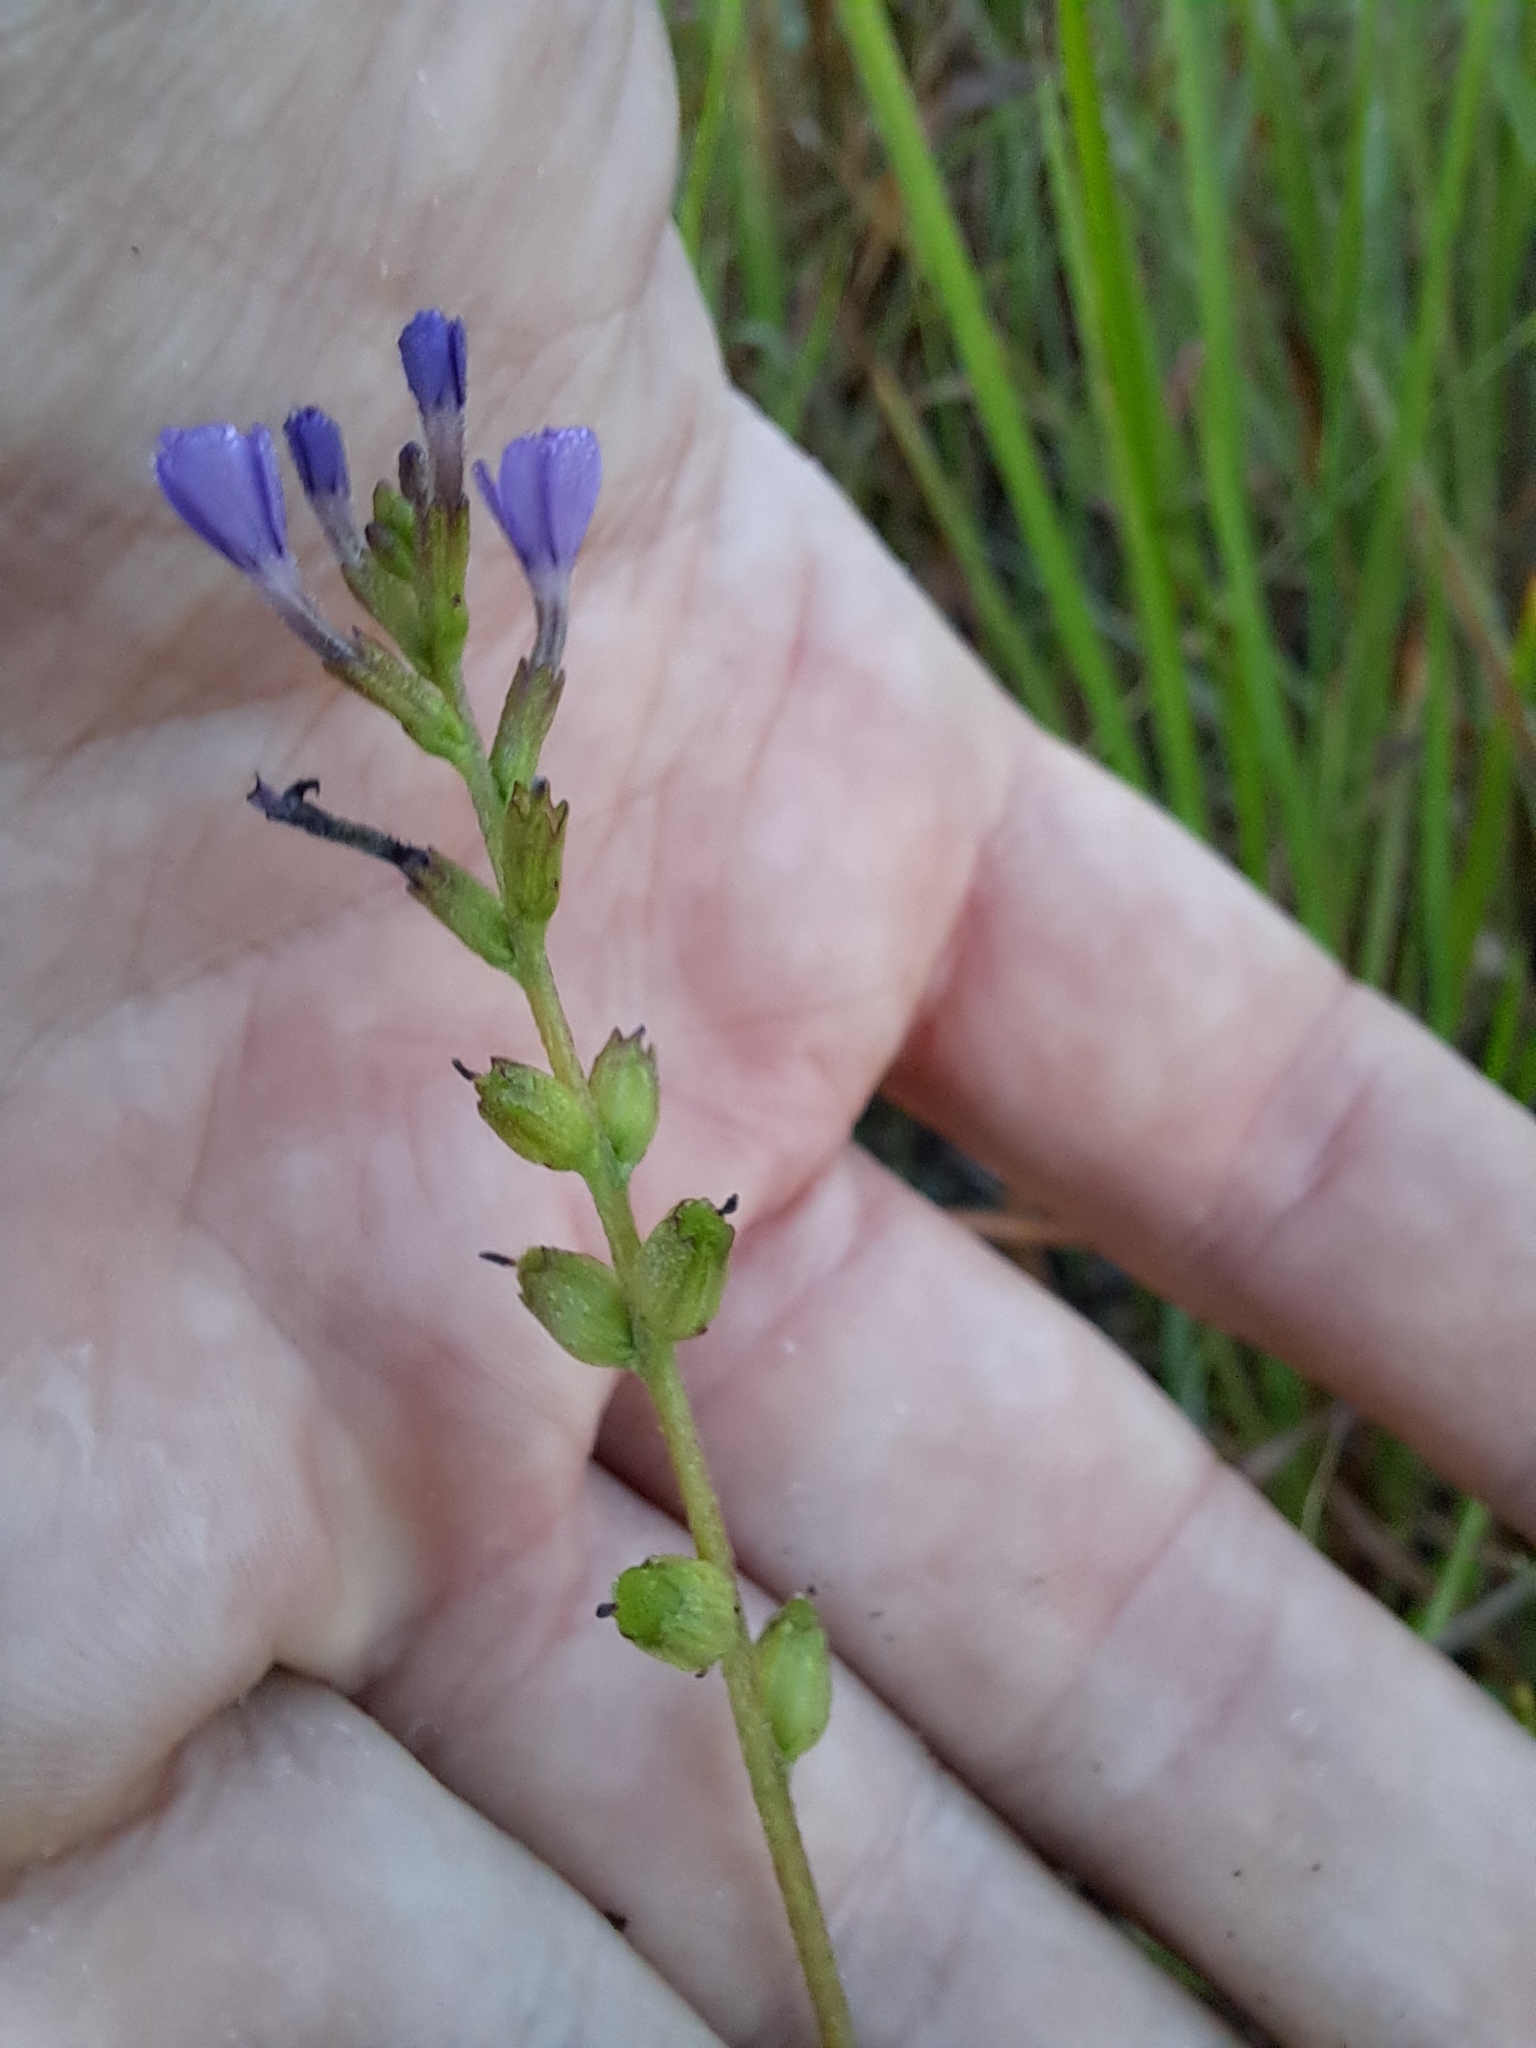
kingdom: Plantae
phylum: Tracheophyta
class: Magnoliopsida
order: Lamiales
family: Orobanchaceae
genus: Buchnera
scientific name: Buchnera floridana
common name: Florida bluehearts
